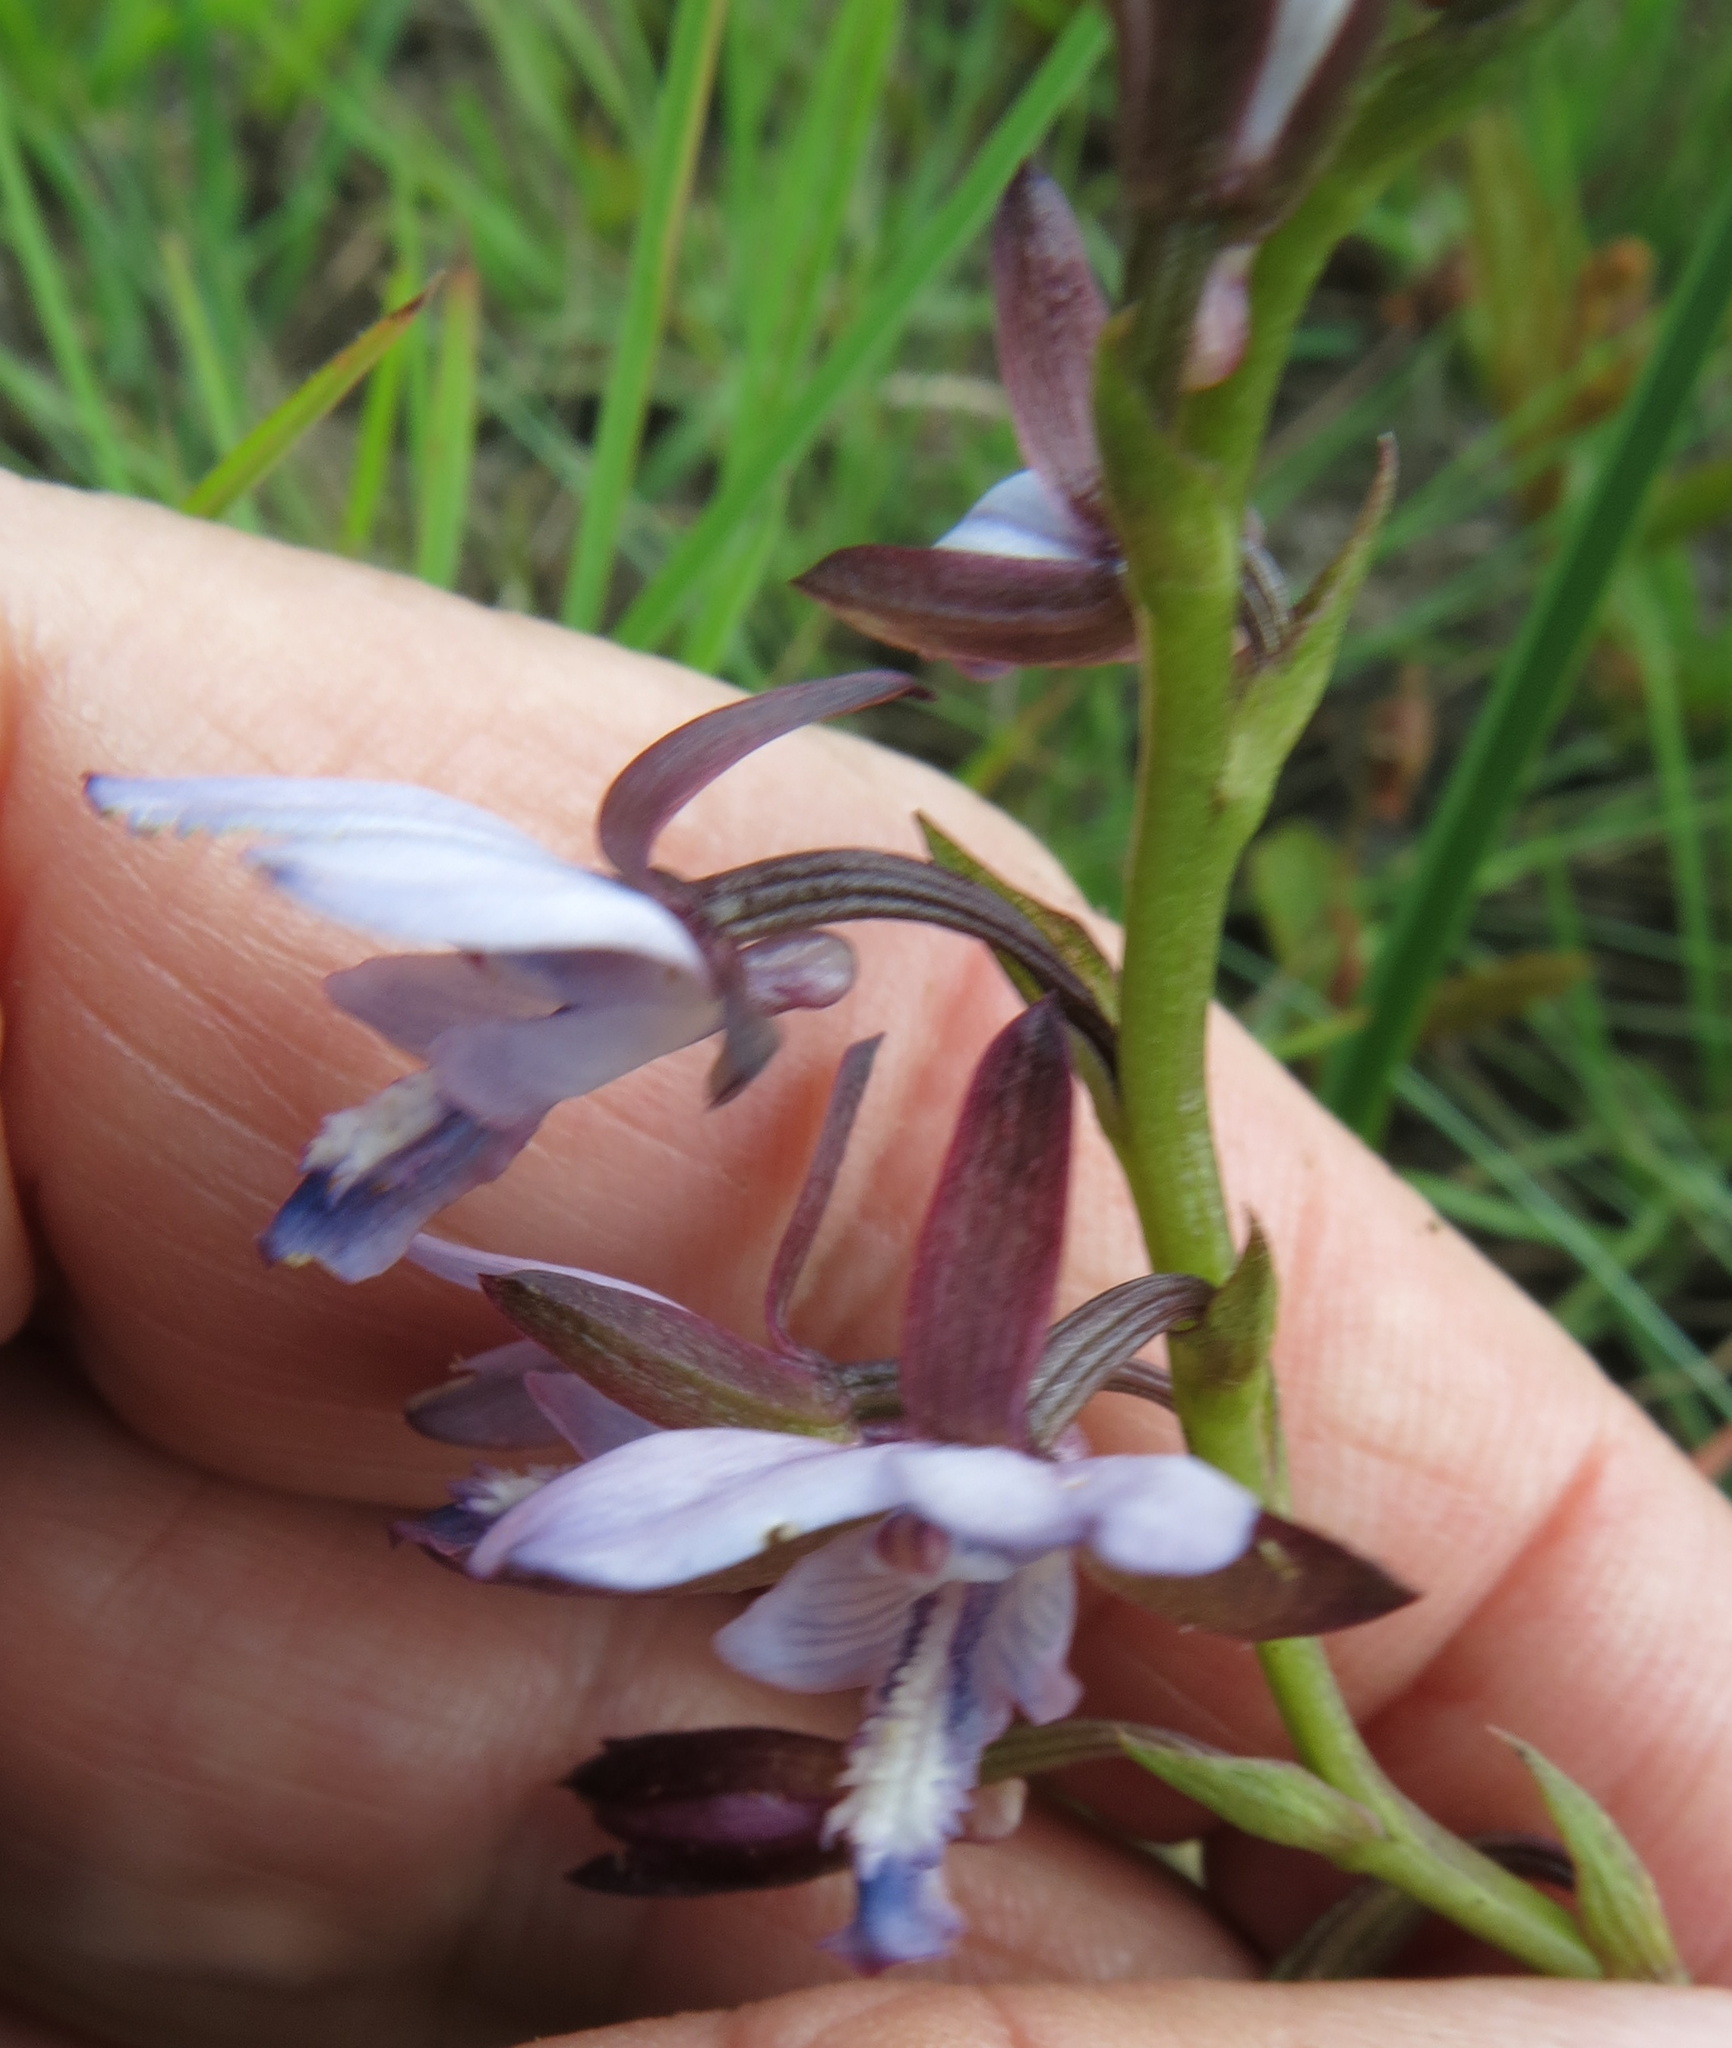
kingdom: Plantae
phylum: Tracheophyta
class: Liliopsida
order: Asparagales
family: Orchidaceae
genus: Eulophia
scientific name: Eulophia zeyheriana
